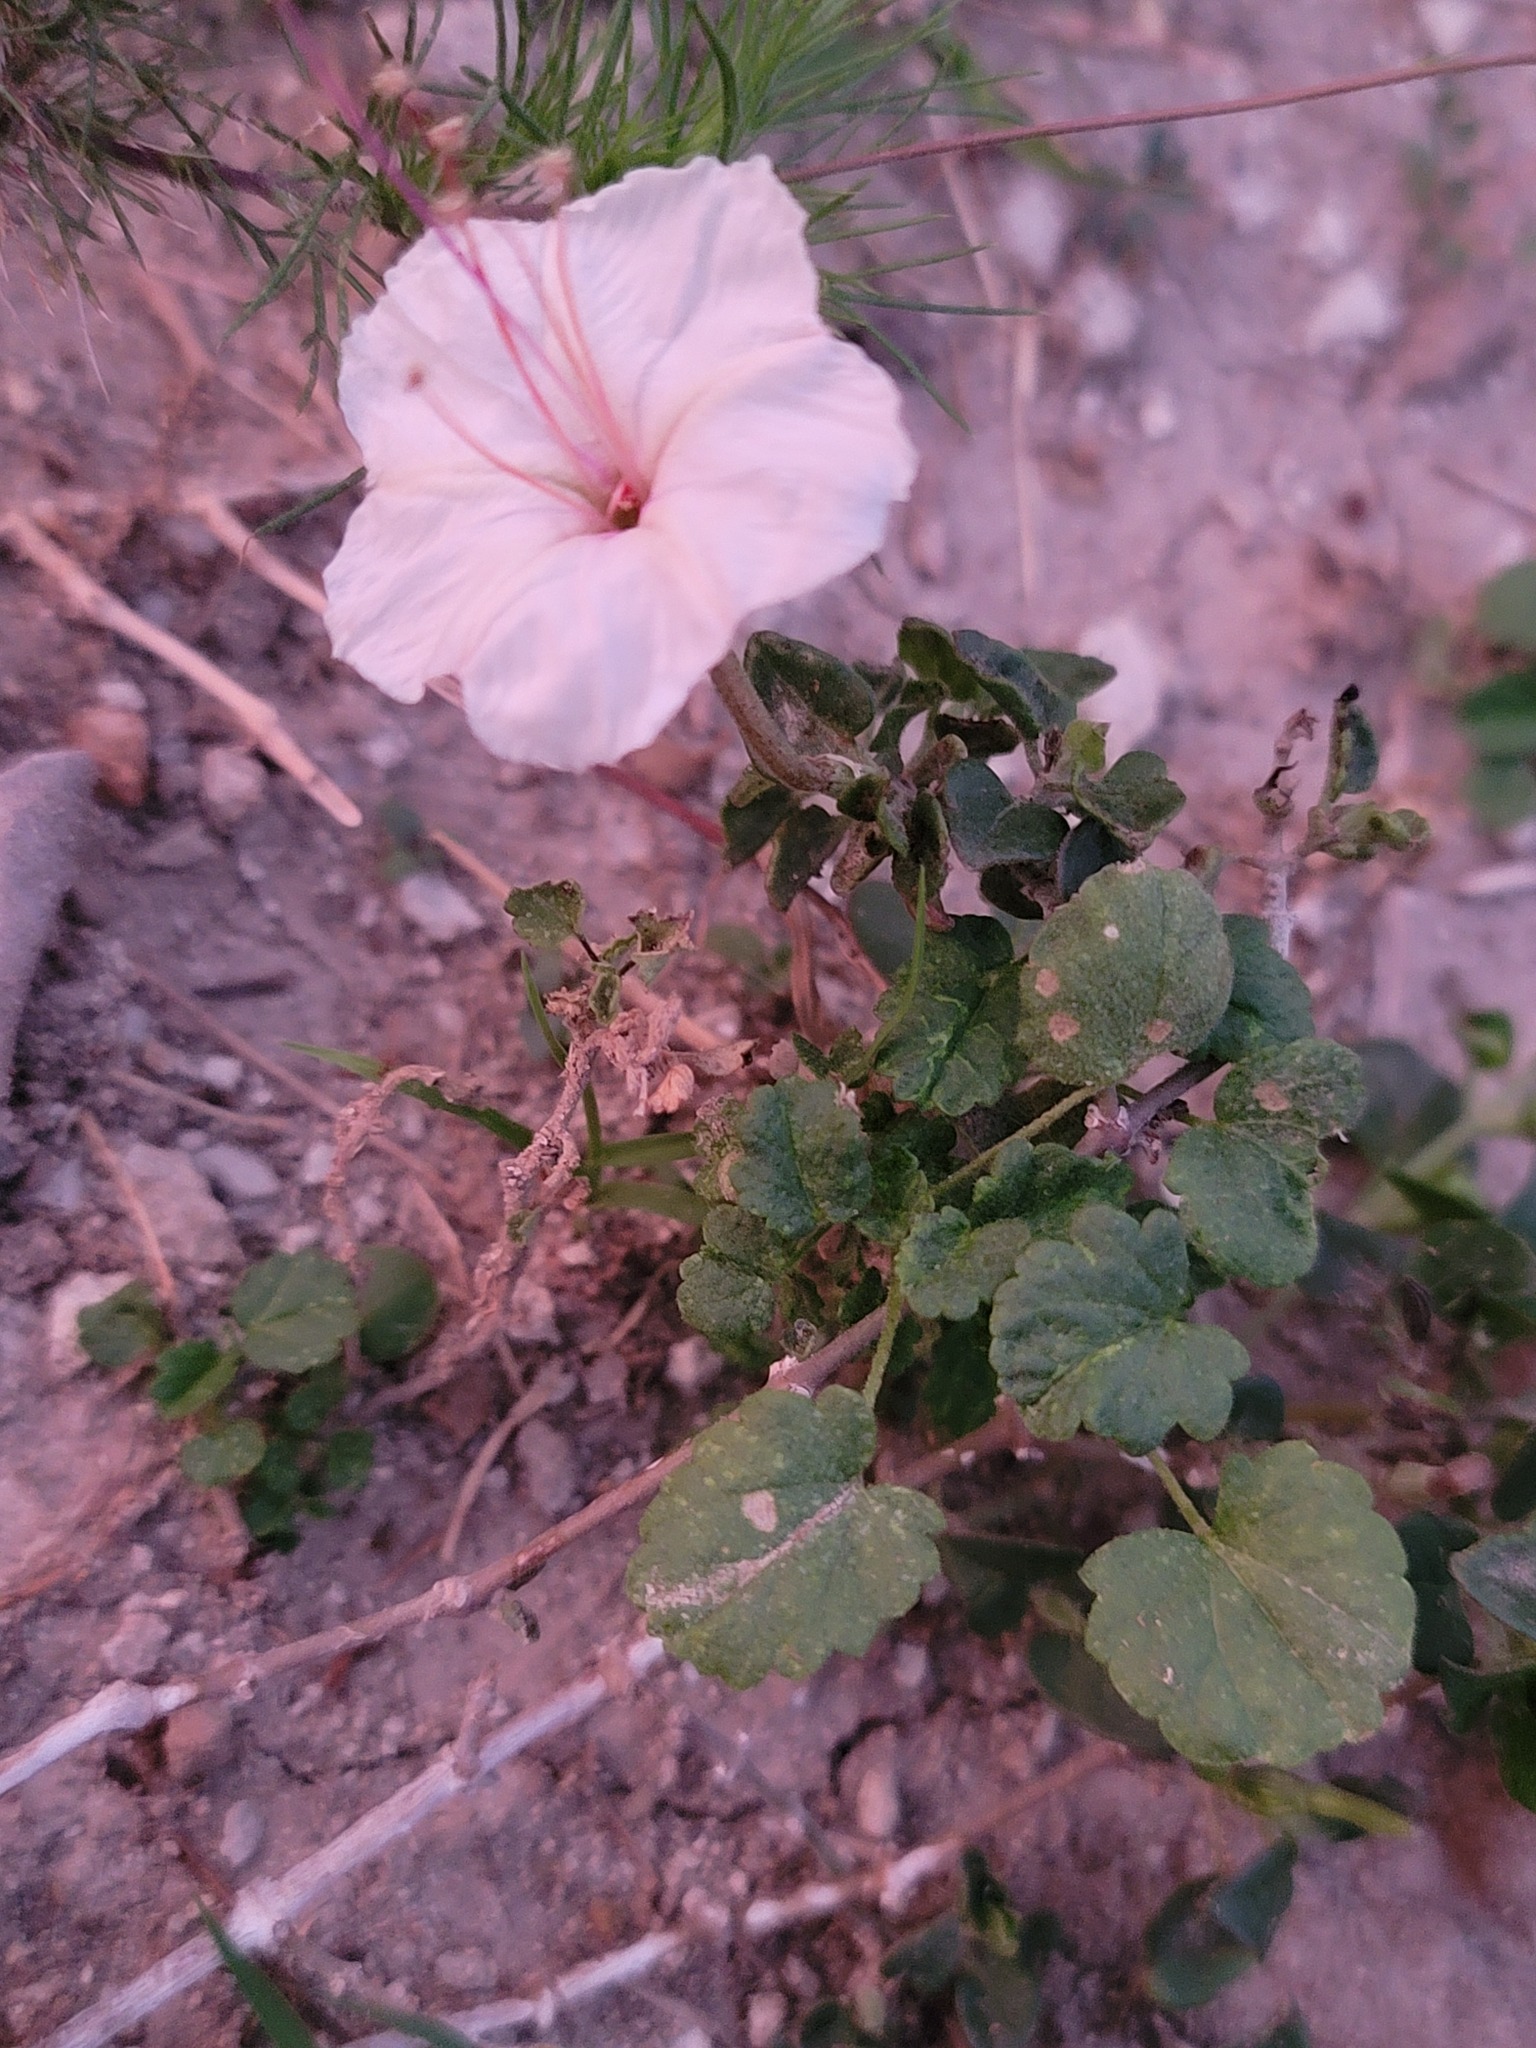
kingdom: Plantae
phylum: Tracheophyta
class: Magnoliopsida
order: Caryophyllales
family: Nyctaginaceae
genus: Acleisanthes
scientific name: Acleisanthes obtusa
